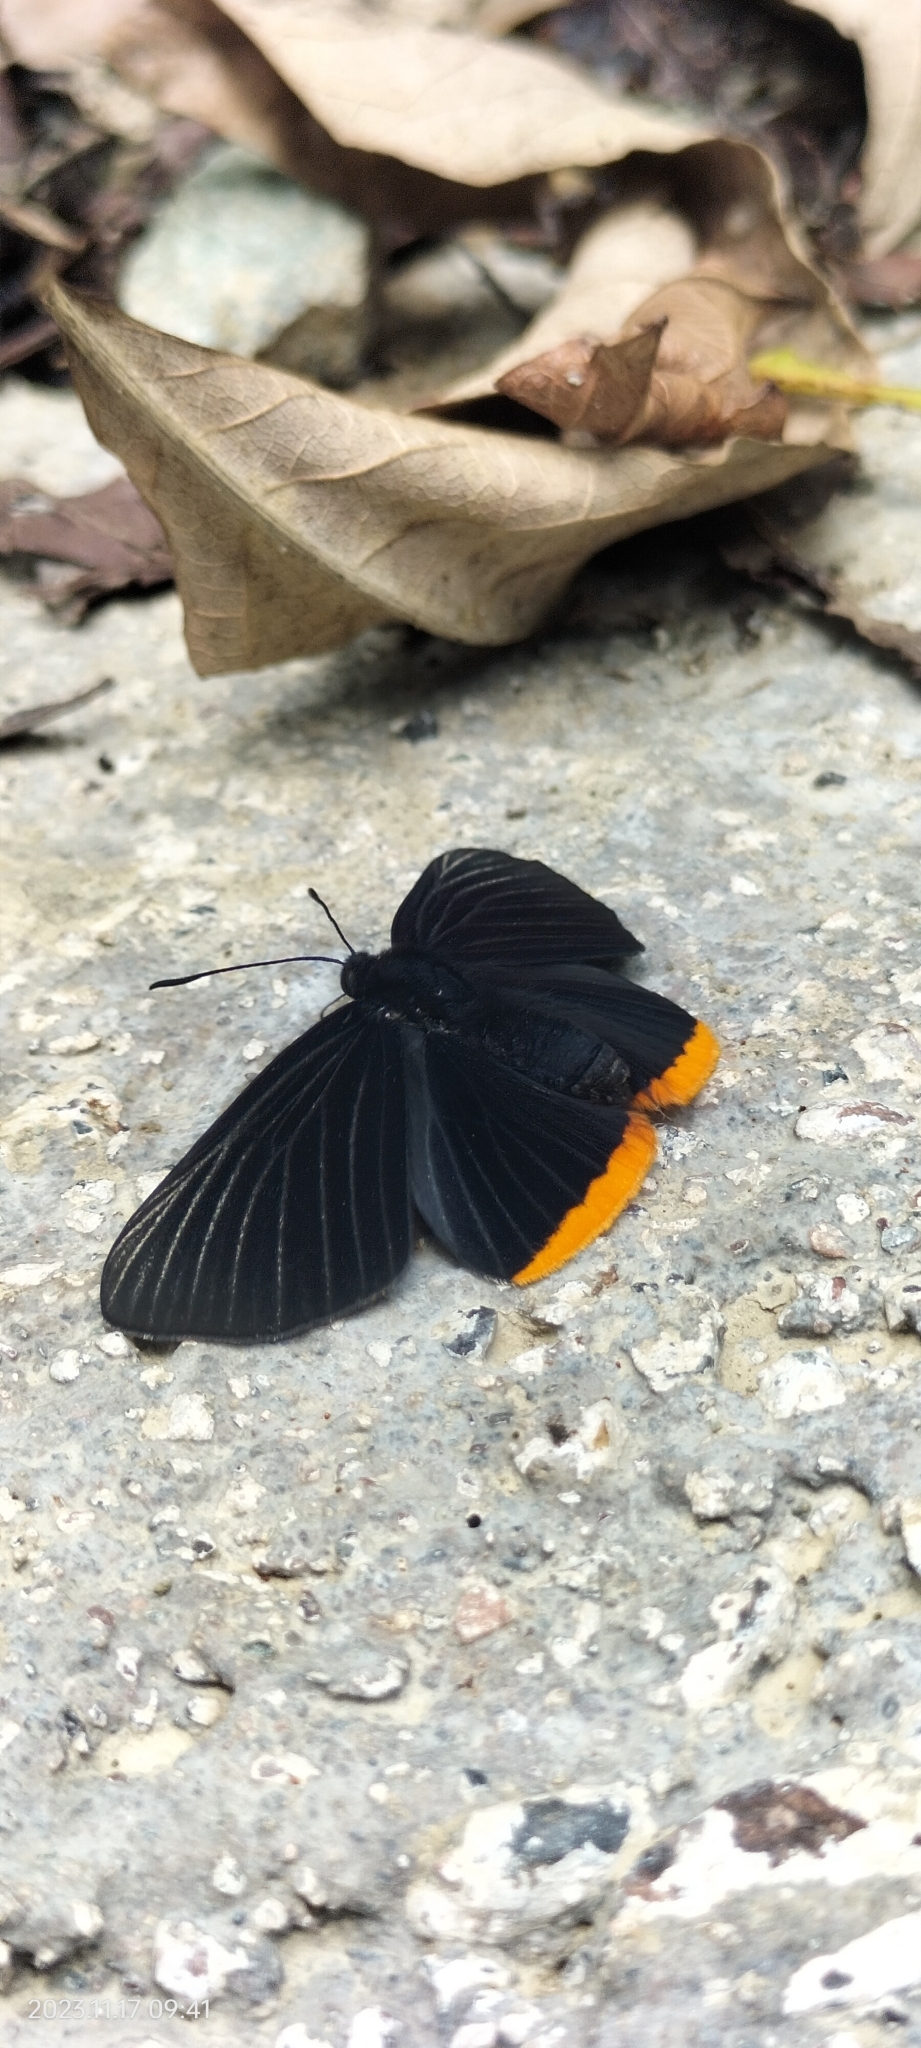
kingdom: Animalia
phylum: Arthropoda
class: Insecta
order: Lepidoptera
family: Lycaenidae
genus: Melanis
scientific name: Melanis
